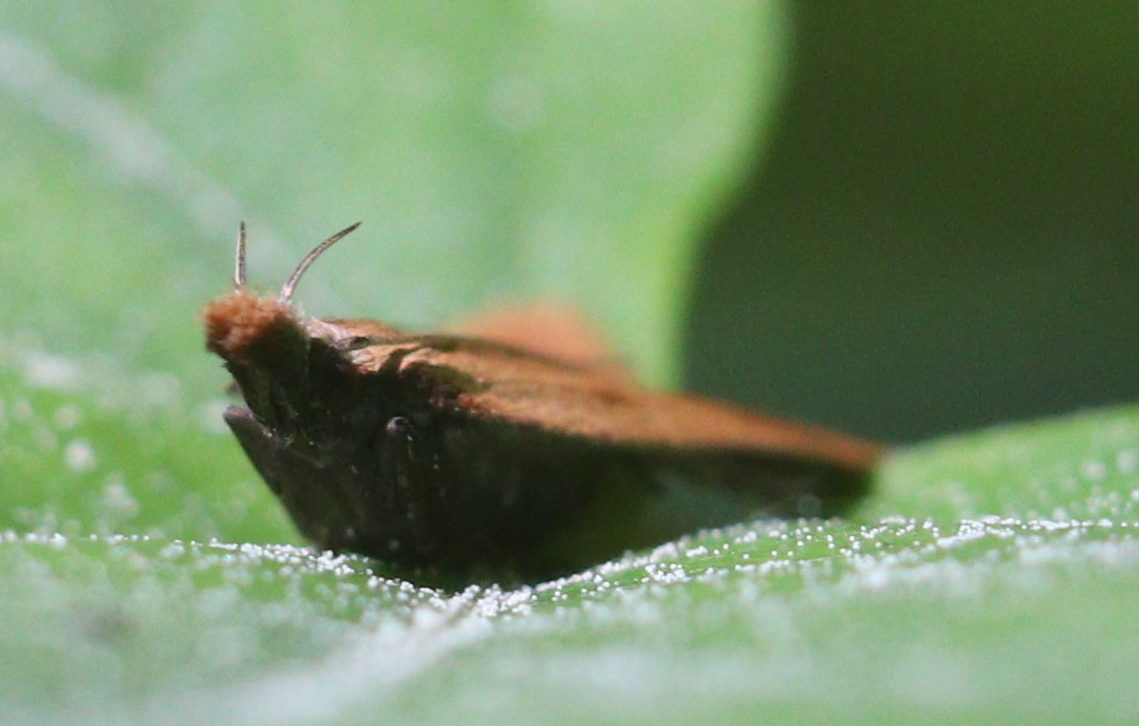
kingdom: Animalia
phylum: Arthropoda
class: Insecta
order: Lepidoptera
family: Gelechiidae
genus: Dichomeris
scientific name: Dichomeris derasella
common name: Blackthorn crest
